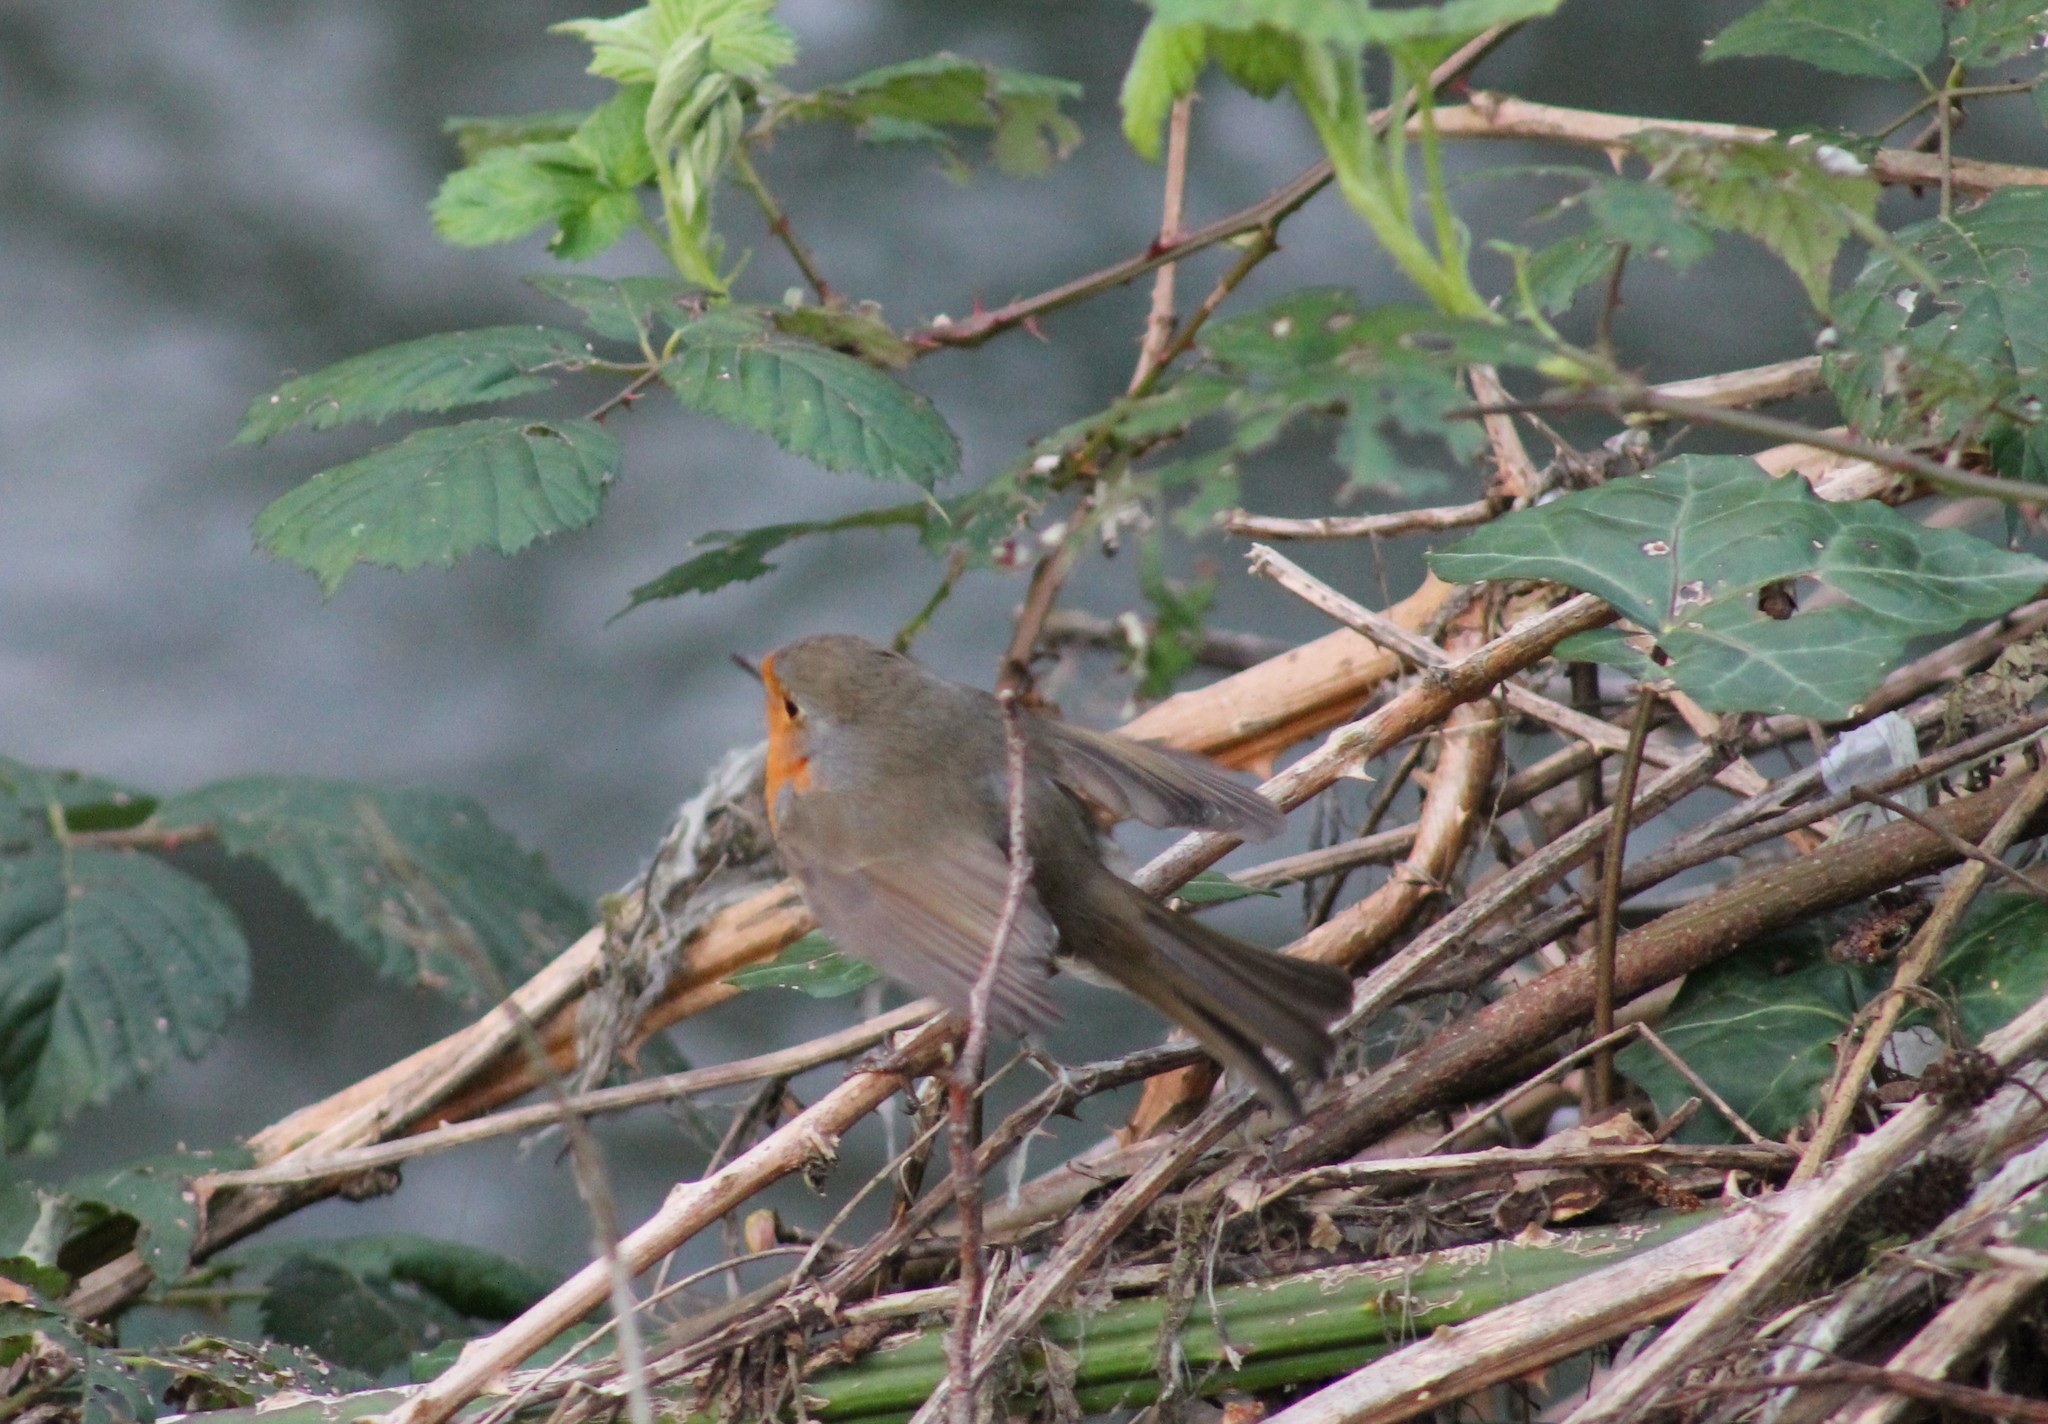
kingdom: Animalia
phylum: Chordata
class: Aves
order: Passeriformes
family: Muscicapidae
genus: Erithacus
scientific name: Erithacus rubecula
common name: European robin
